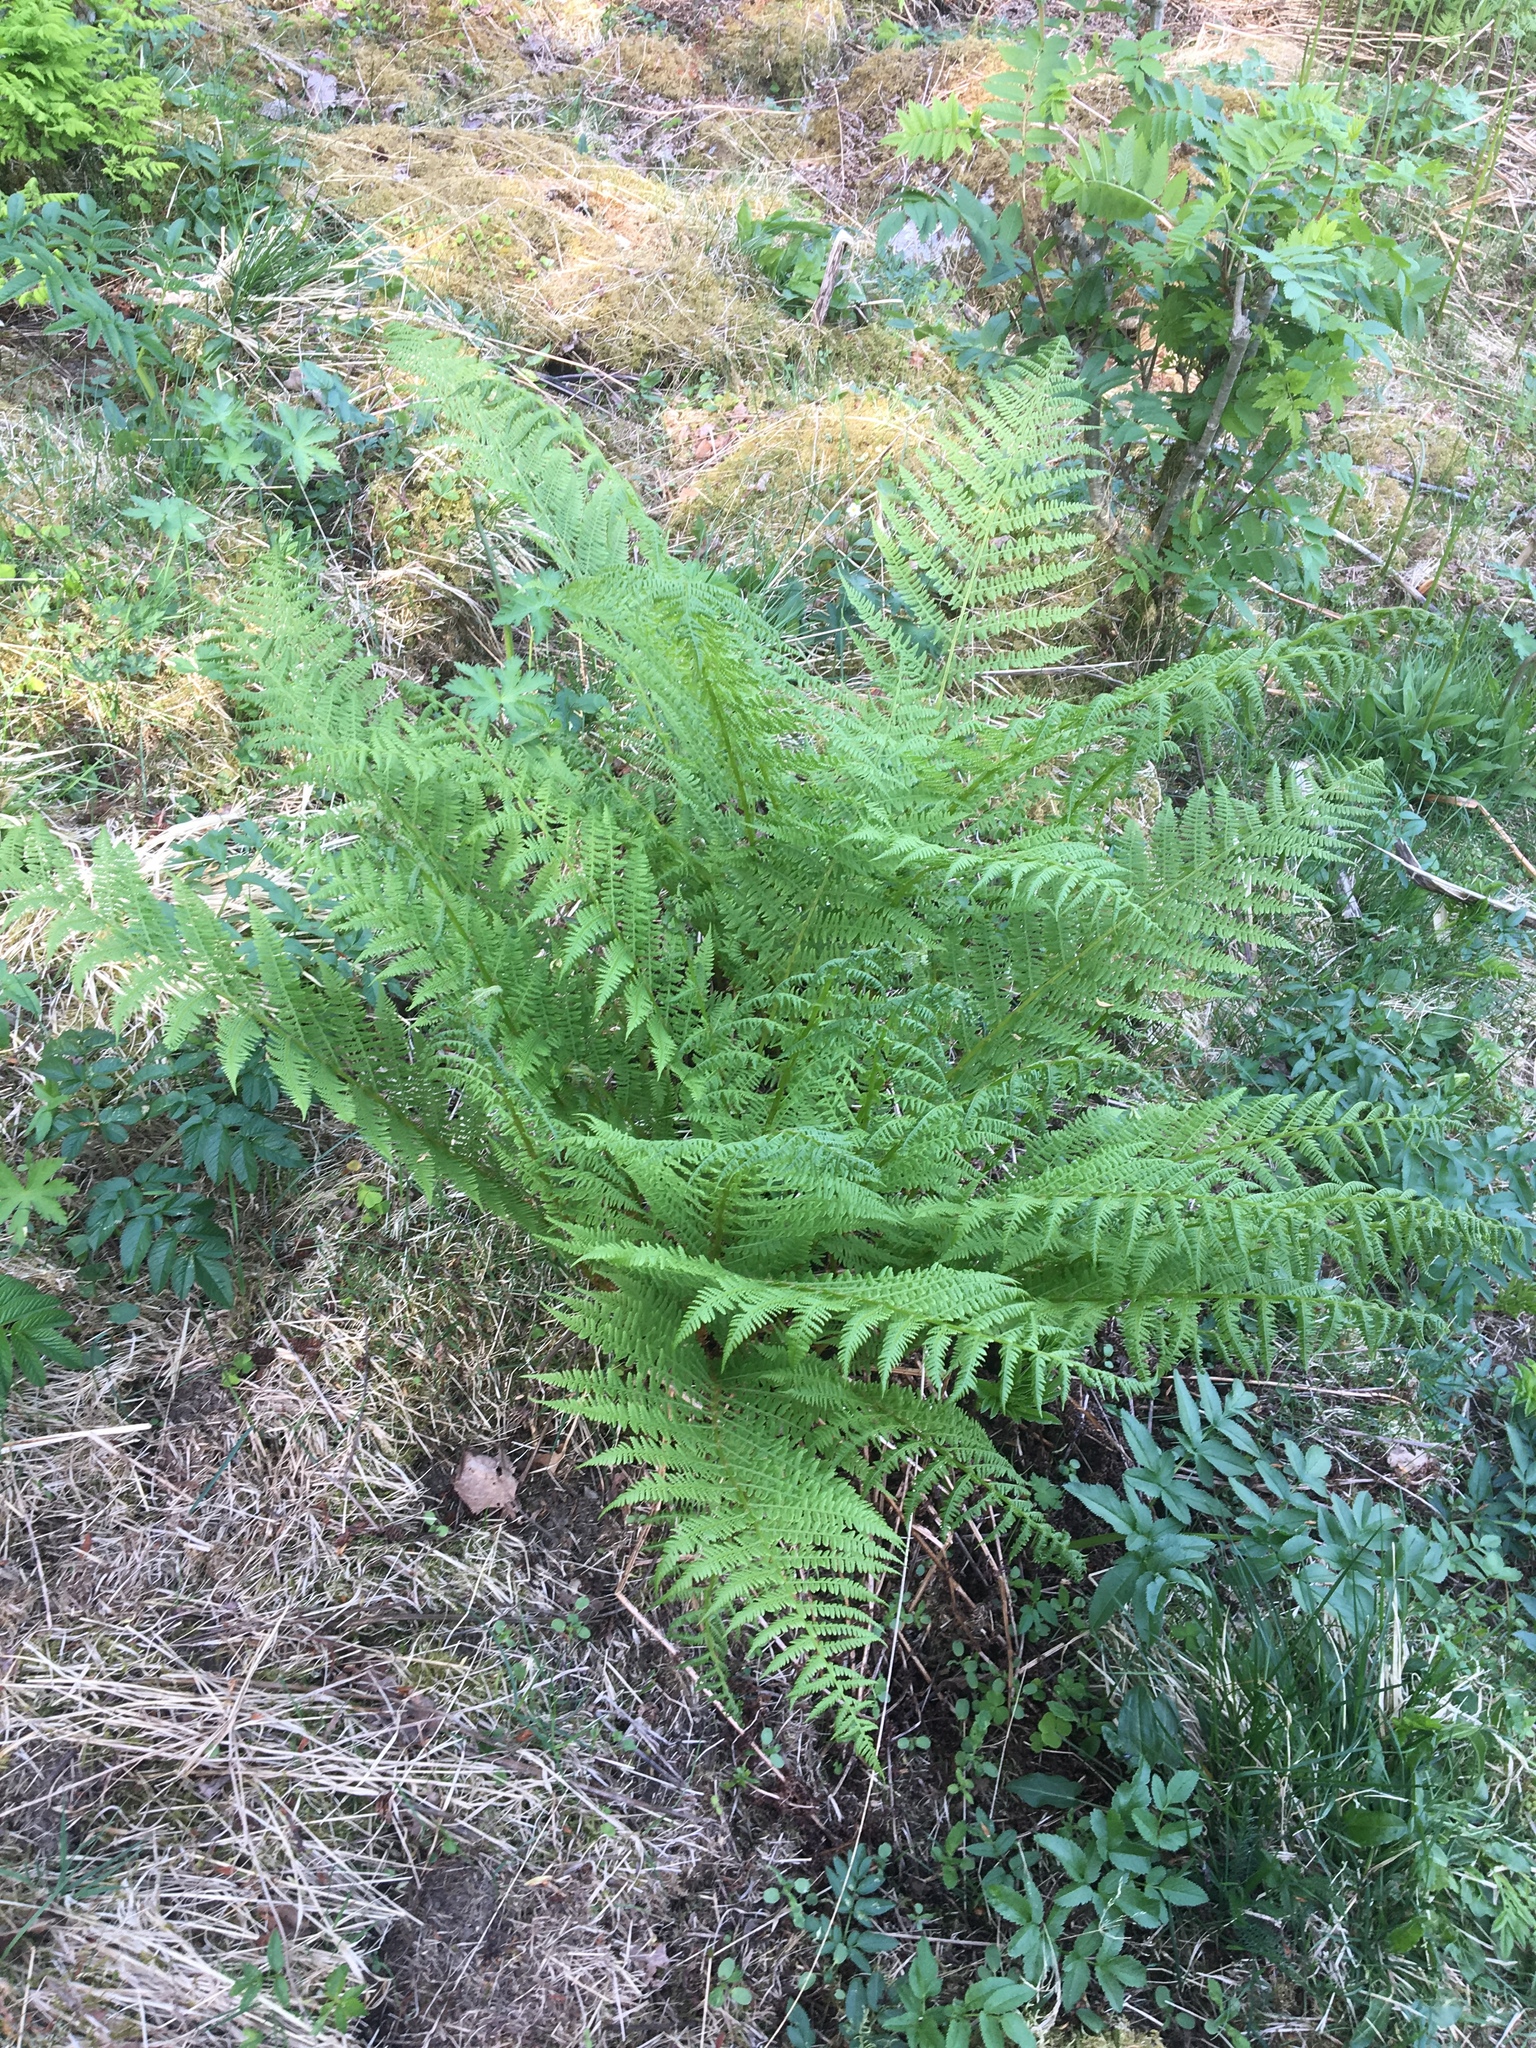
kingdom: Plantae
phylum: Tracheophyta
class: Polypodiopsida
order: Polypodiales
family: Athyriaceae
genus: Athyrium
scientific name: Athyrium filix-femina
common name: Lady fern
